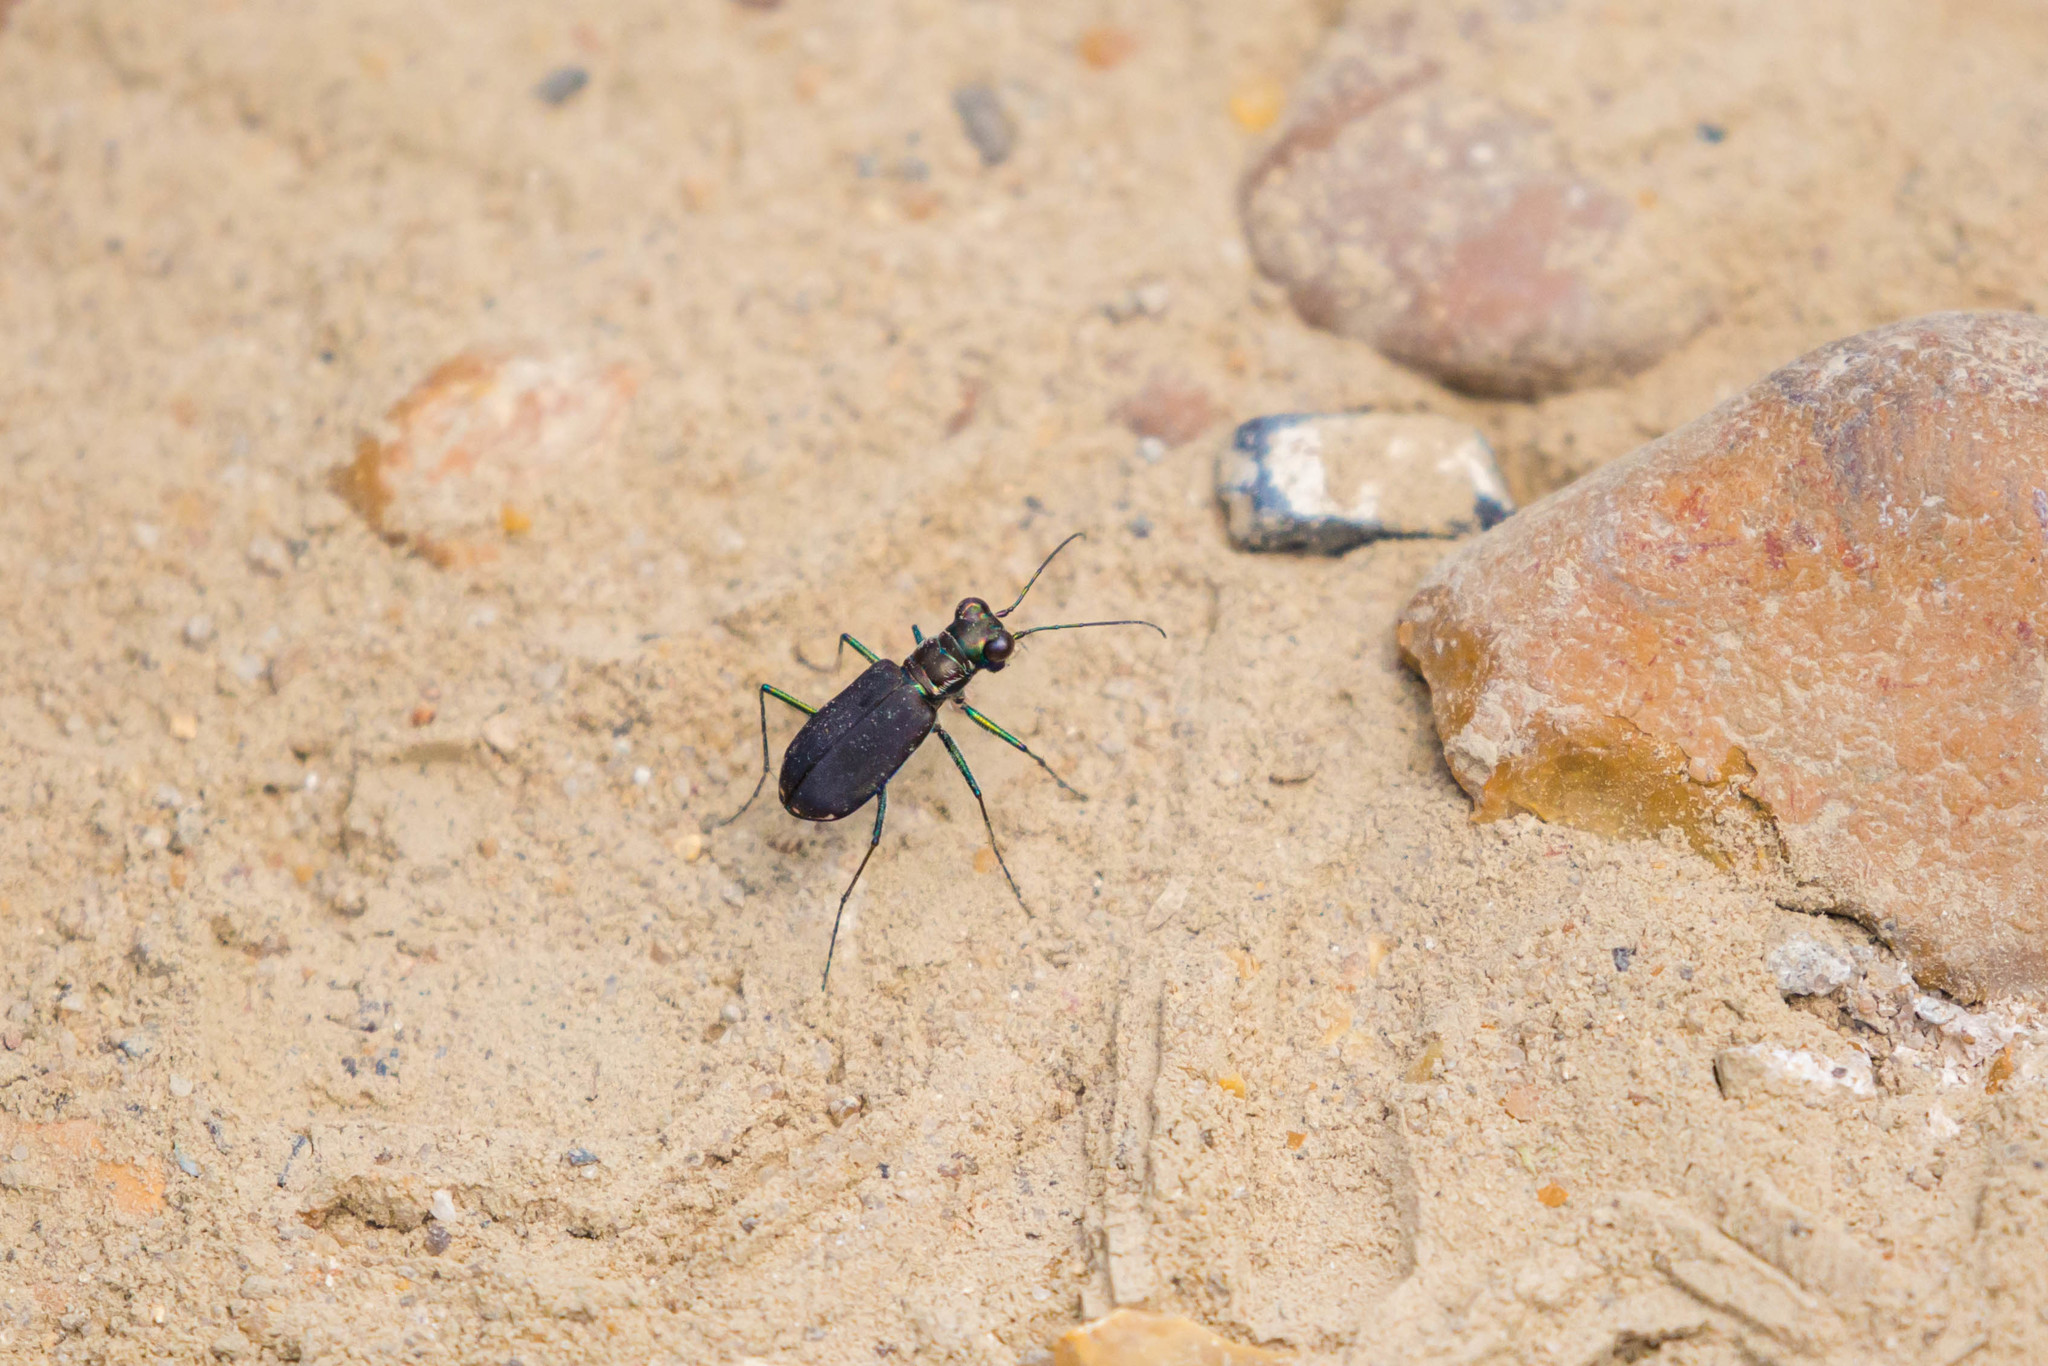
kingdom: Animalia
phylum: Arthropoda
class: Insecta
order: Coleoptera
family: Carabidae
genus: Cicindela
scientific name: Cicindela punctulata
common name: Punctured tiger beetle
